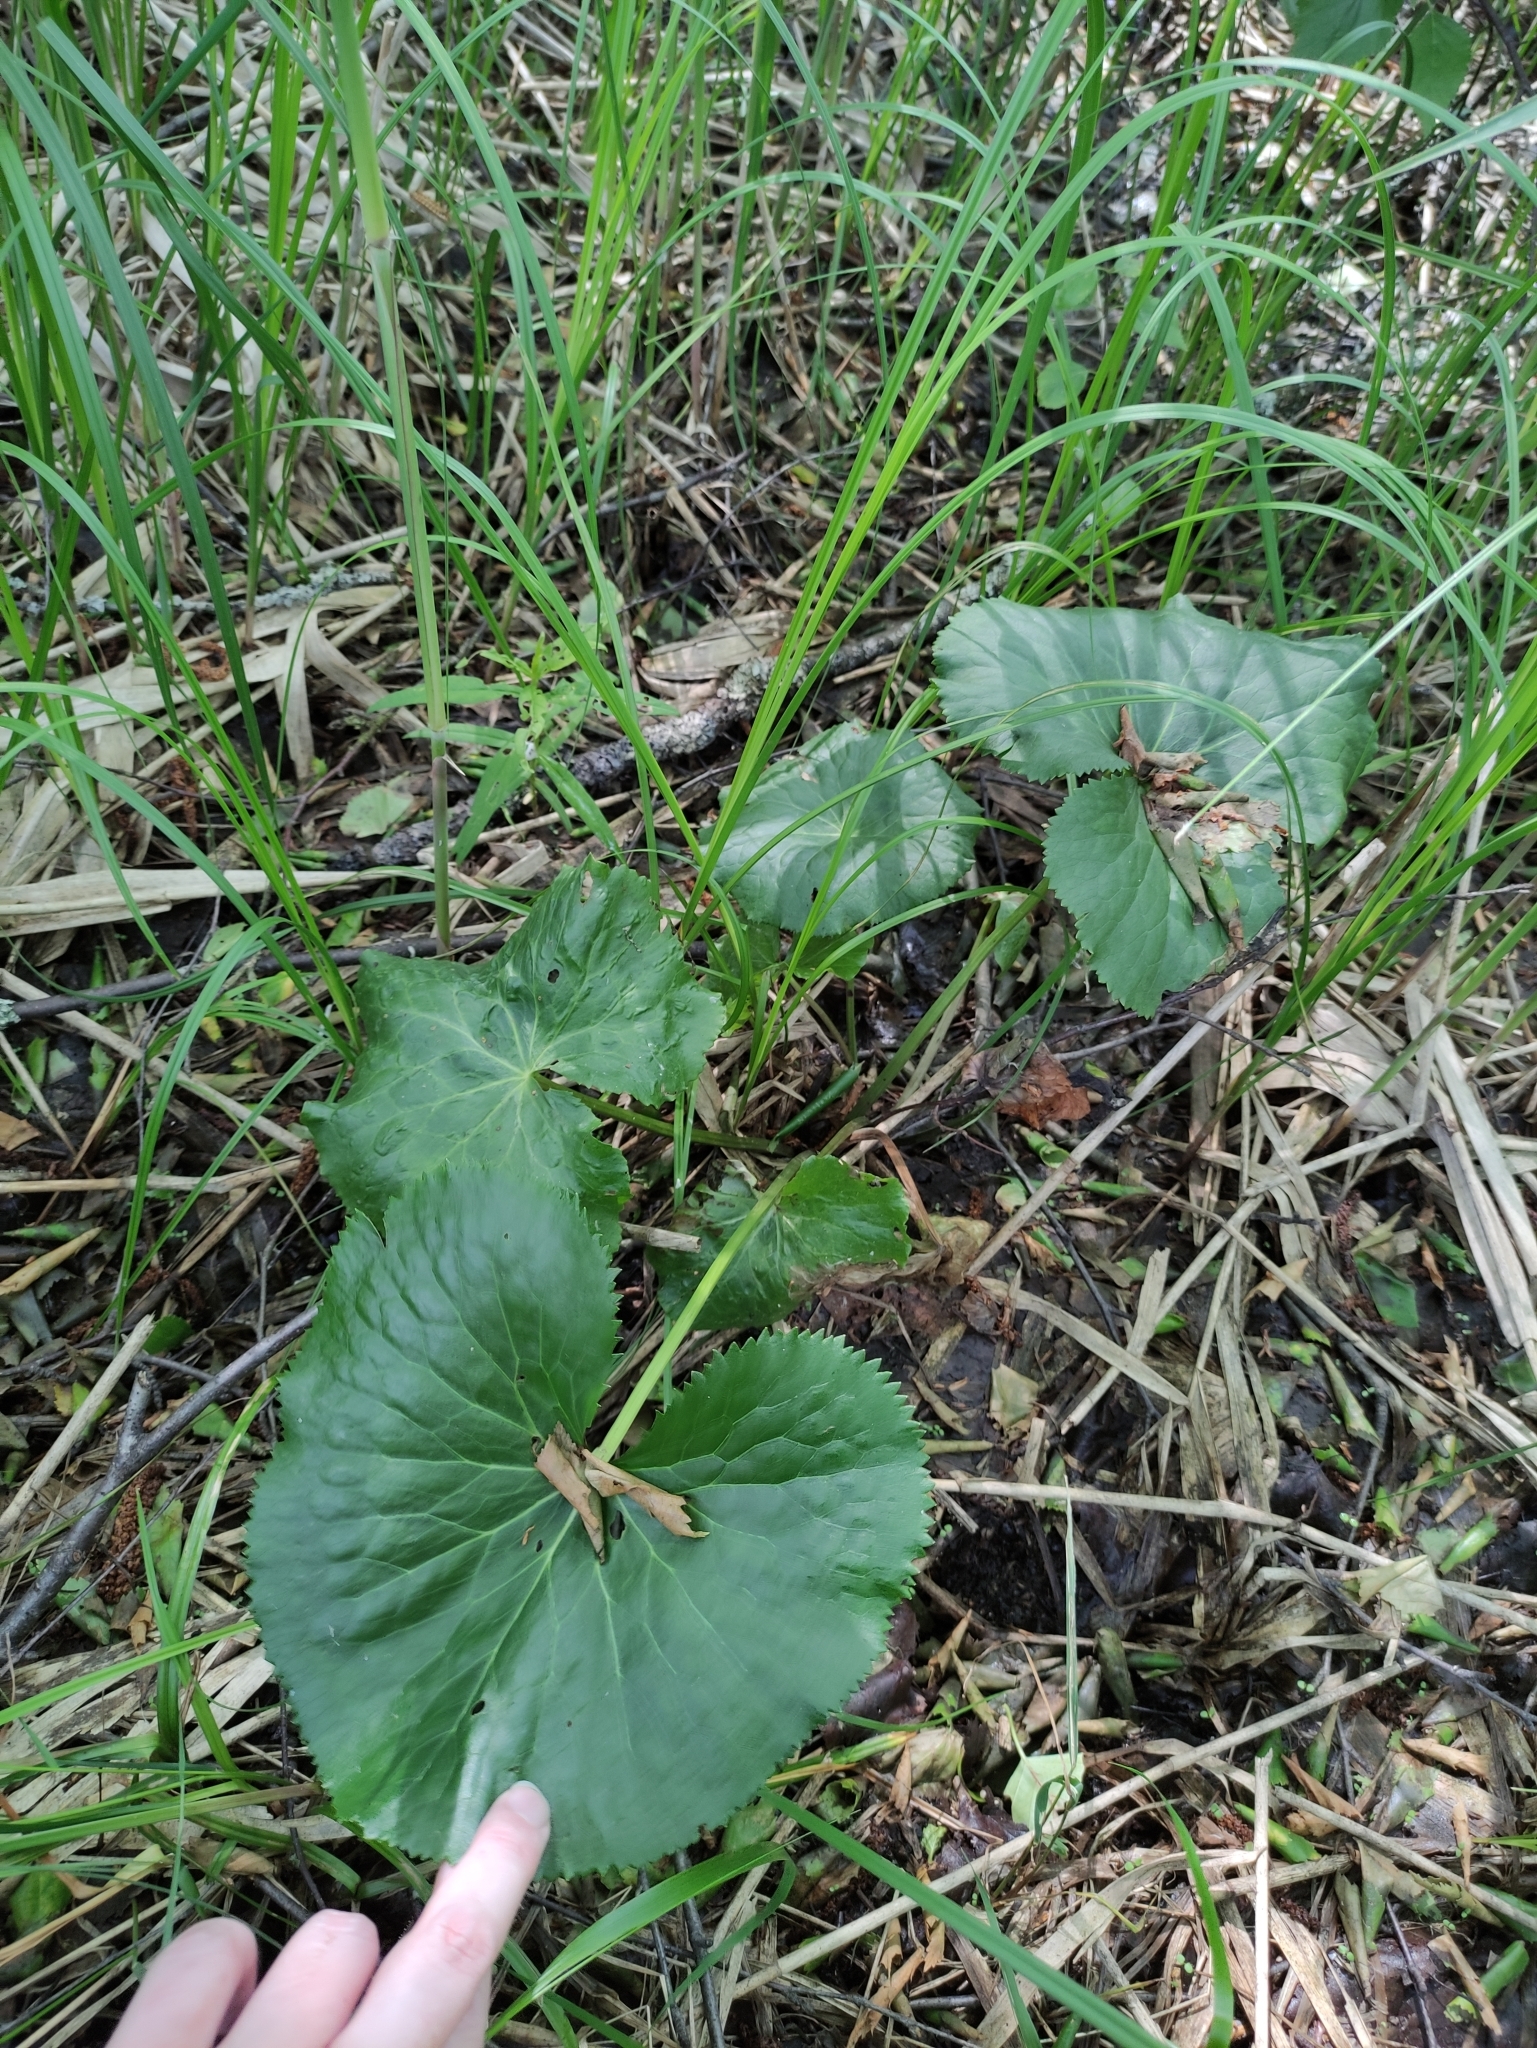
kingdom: Plantae
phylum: Tracheophyta
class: Magnoliopsida
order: Ranunculales
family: Ranunculaceae
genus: Caltha
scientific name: Caltha palustris
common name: Marsh marigold
